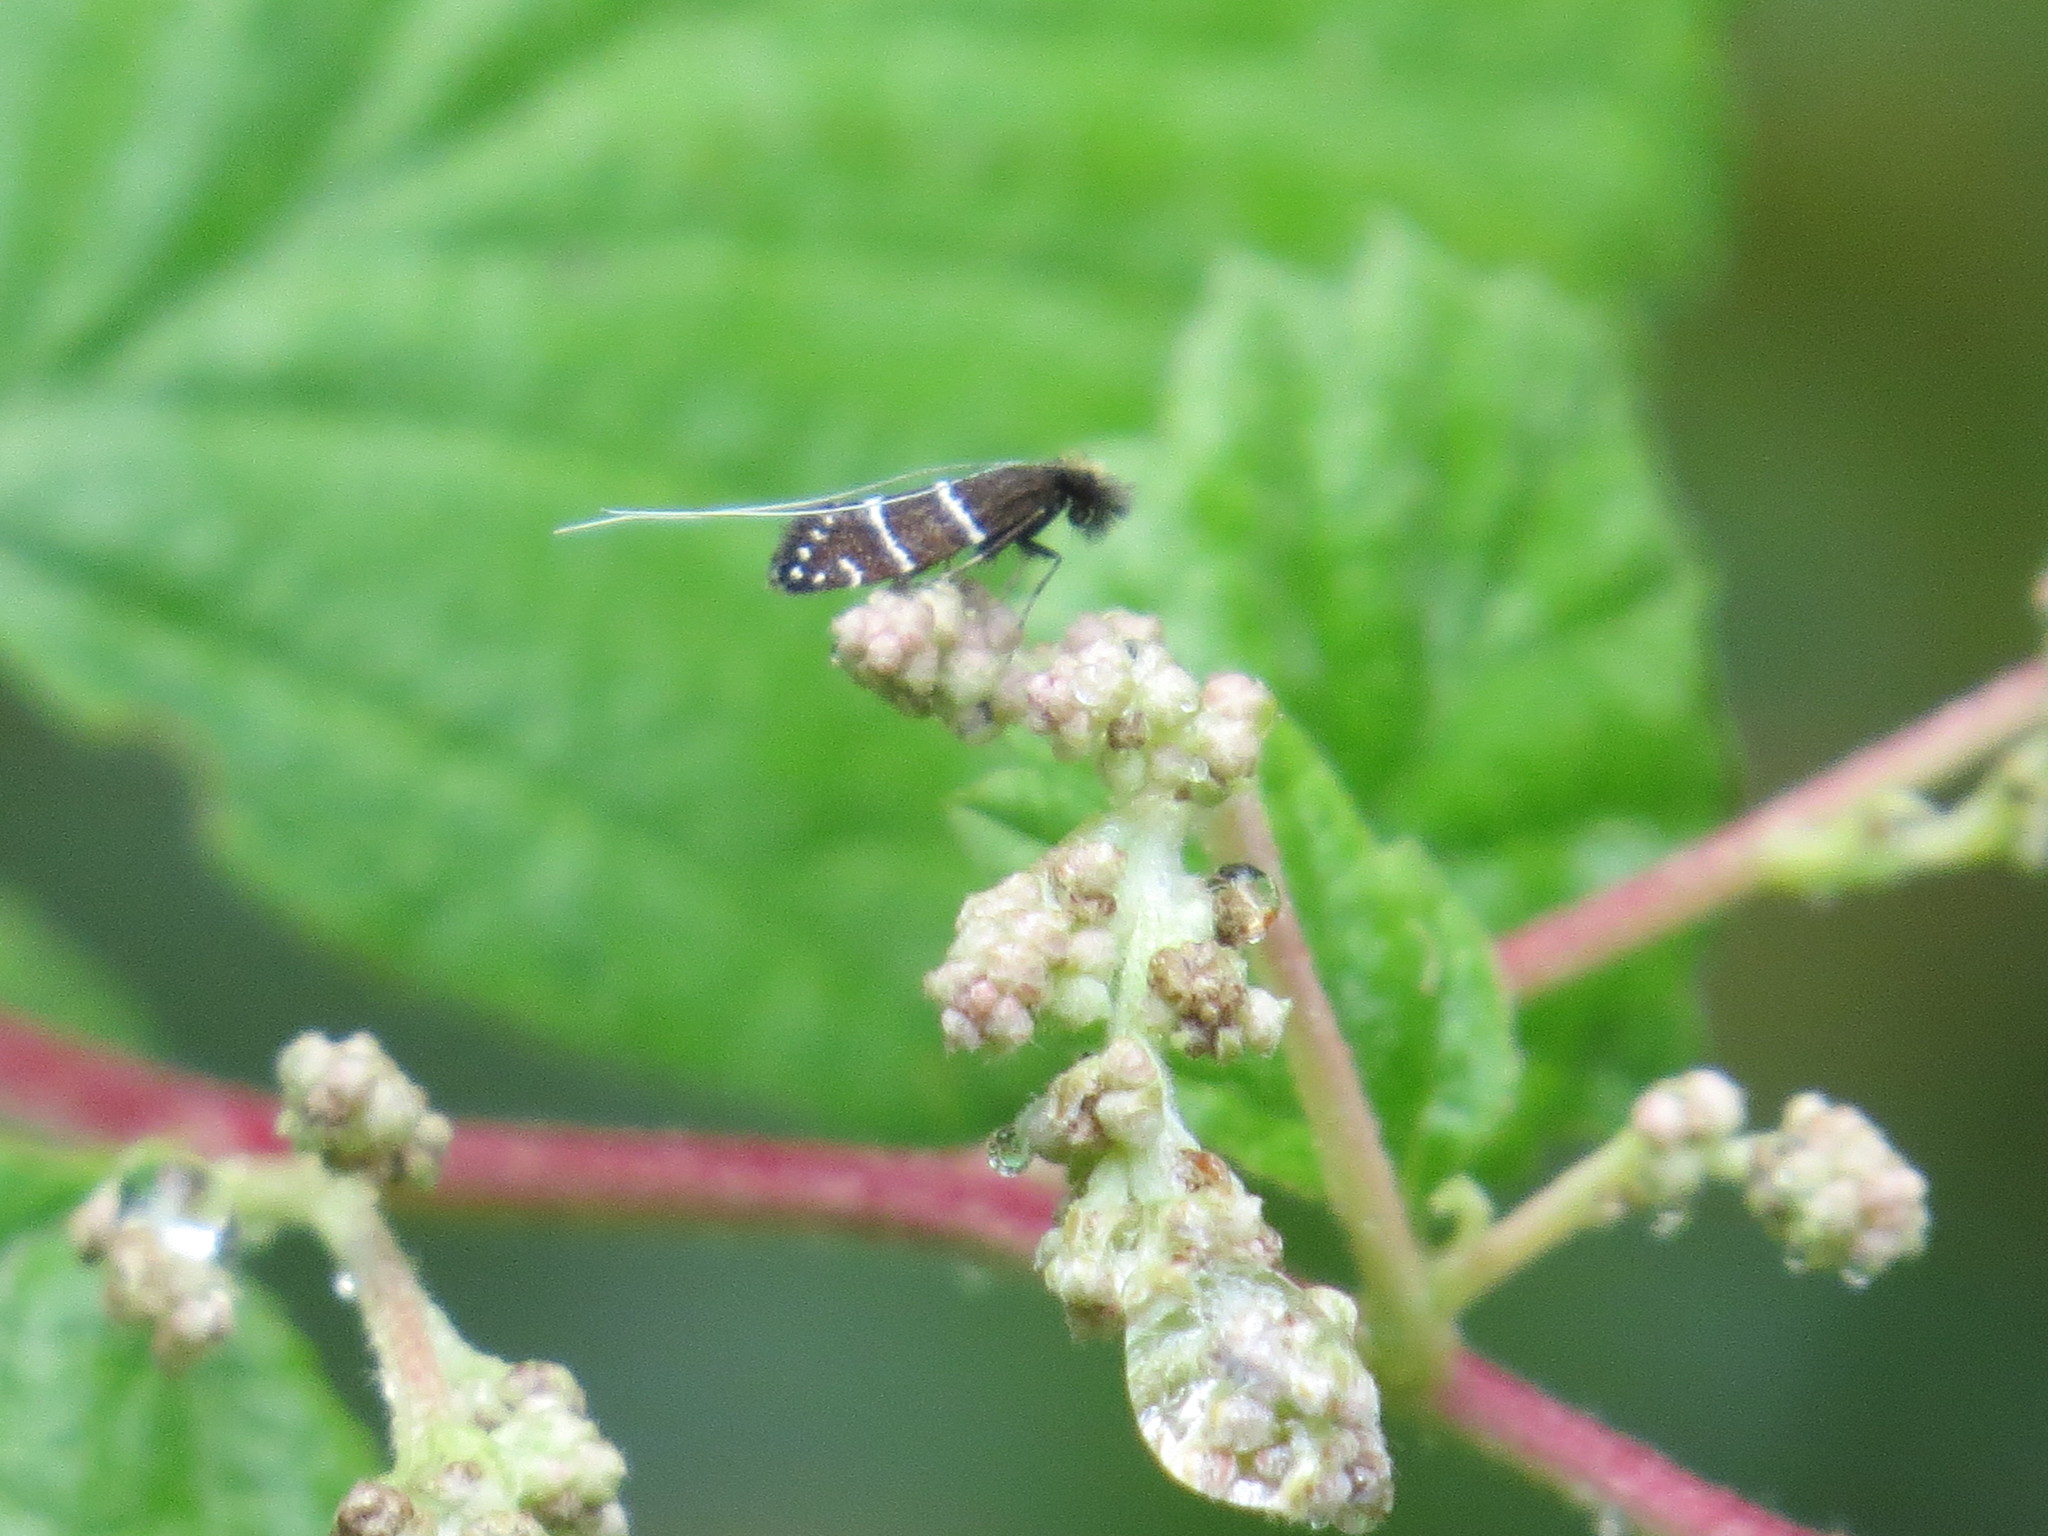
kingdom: Animalia
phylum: Arthropoda
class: Insecta
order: Lepidoptera
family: Adelidae
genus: Adela
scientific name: Adela septentrionella
